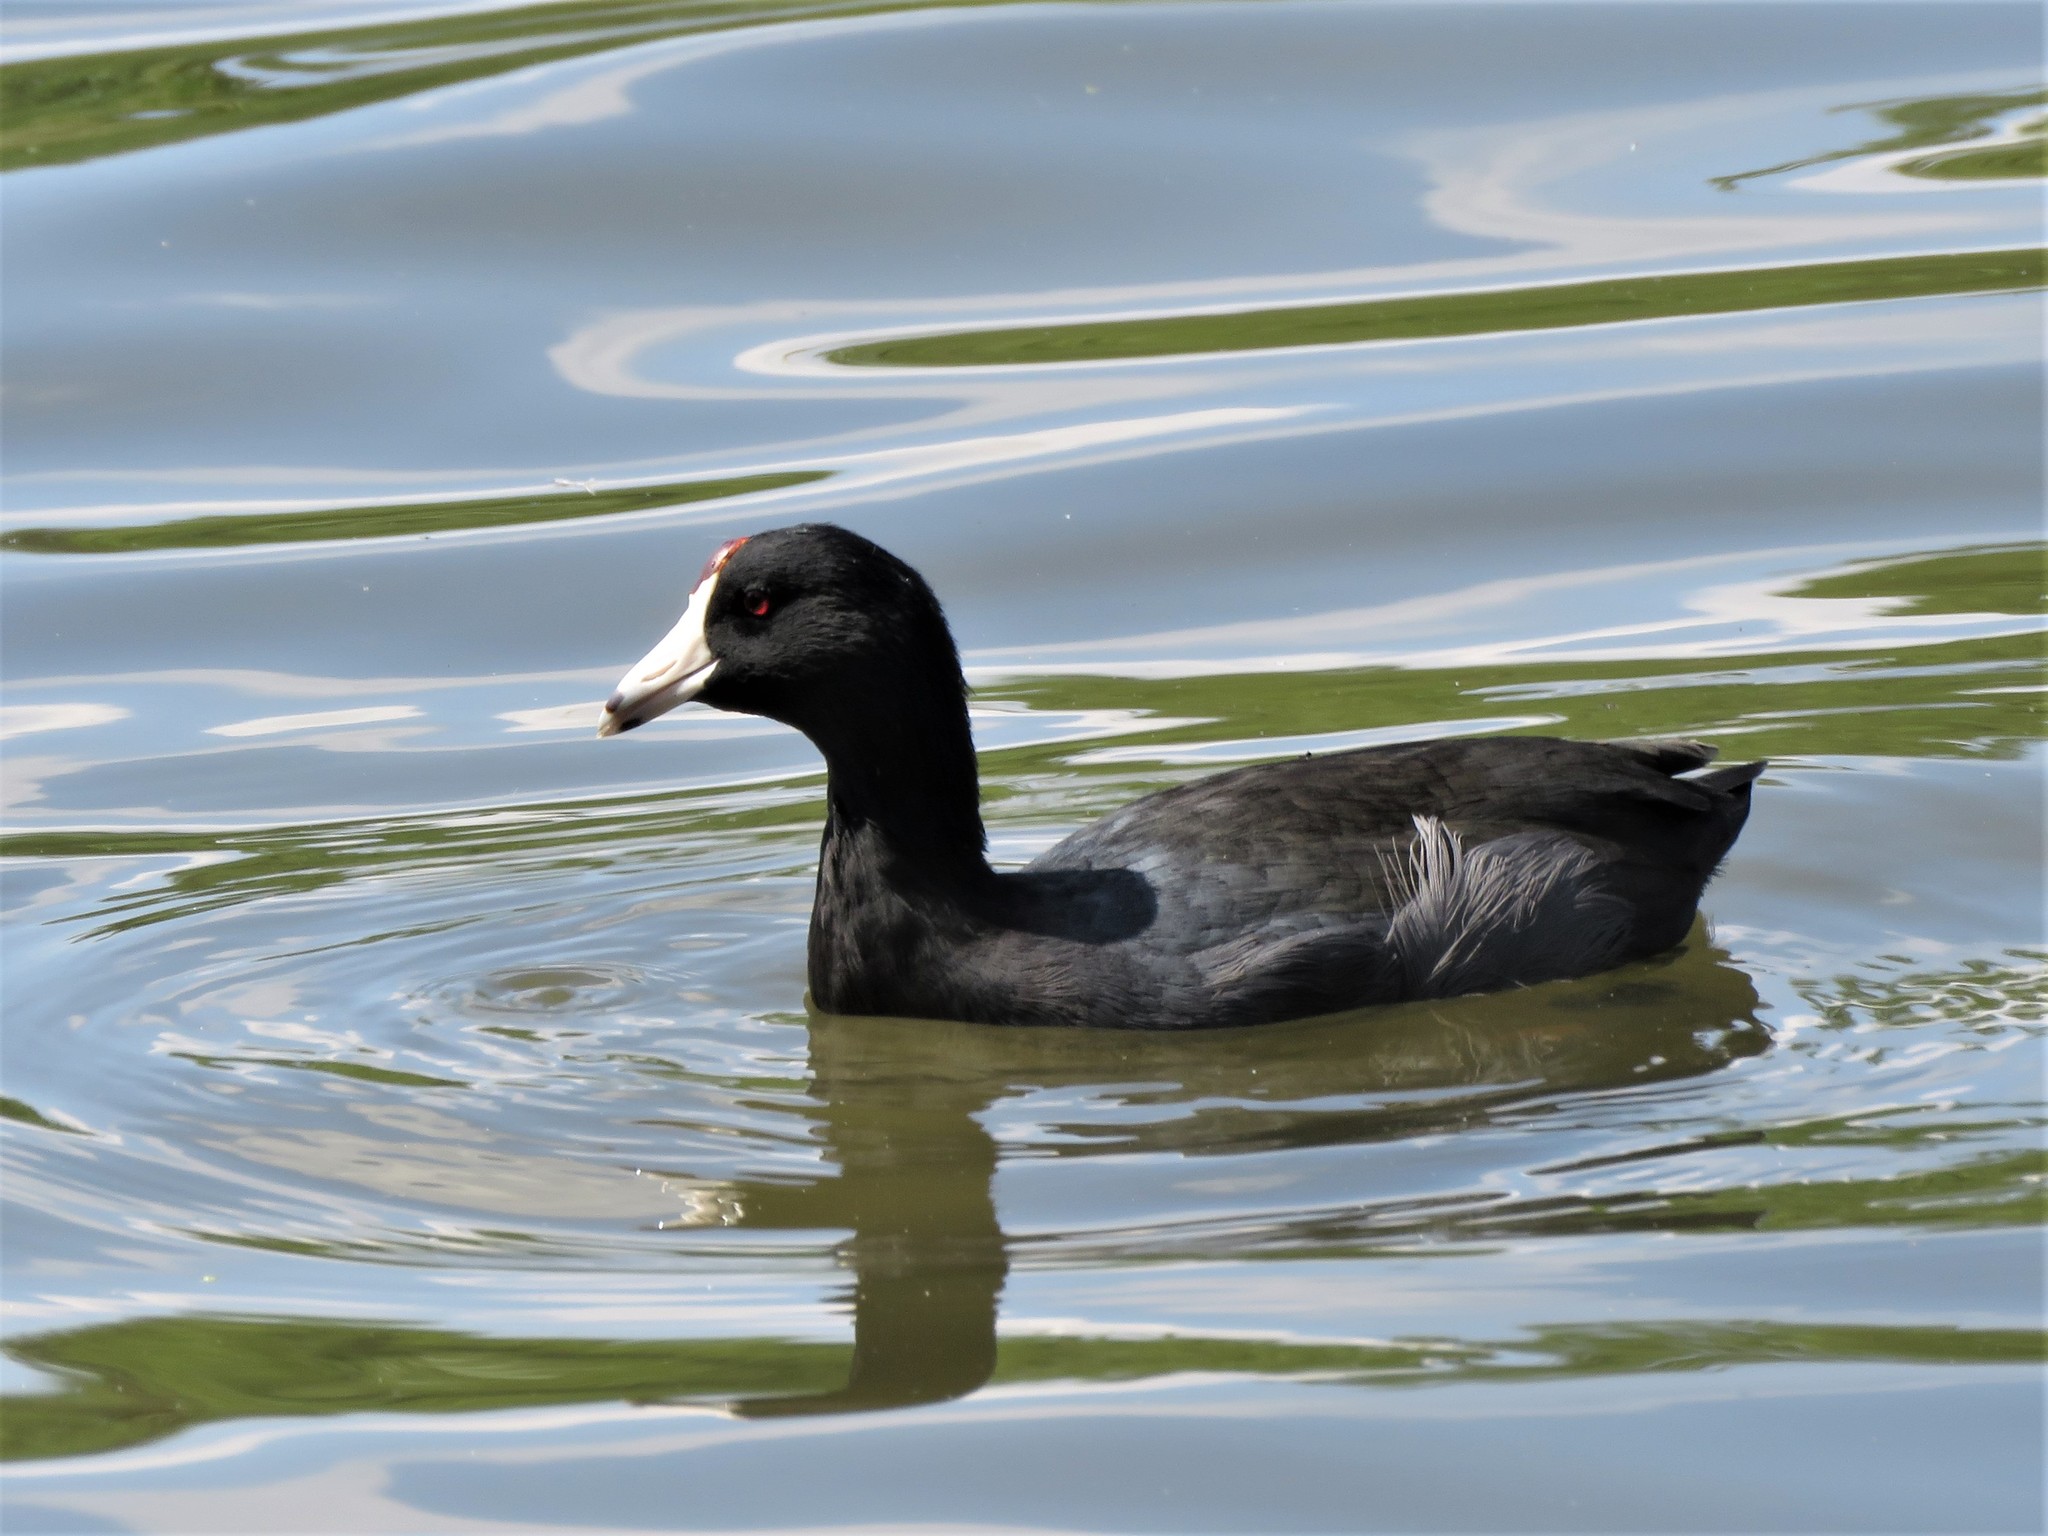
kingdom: Animalia
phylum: Chordata
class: Aves
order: Gruiformes
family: Rallidae
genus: Fulica
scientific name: Fulica americana
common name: American coot
